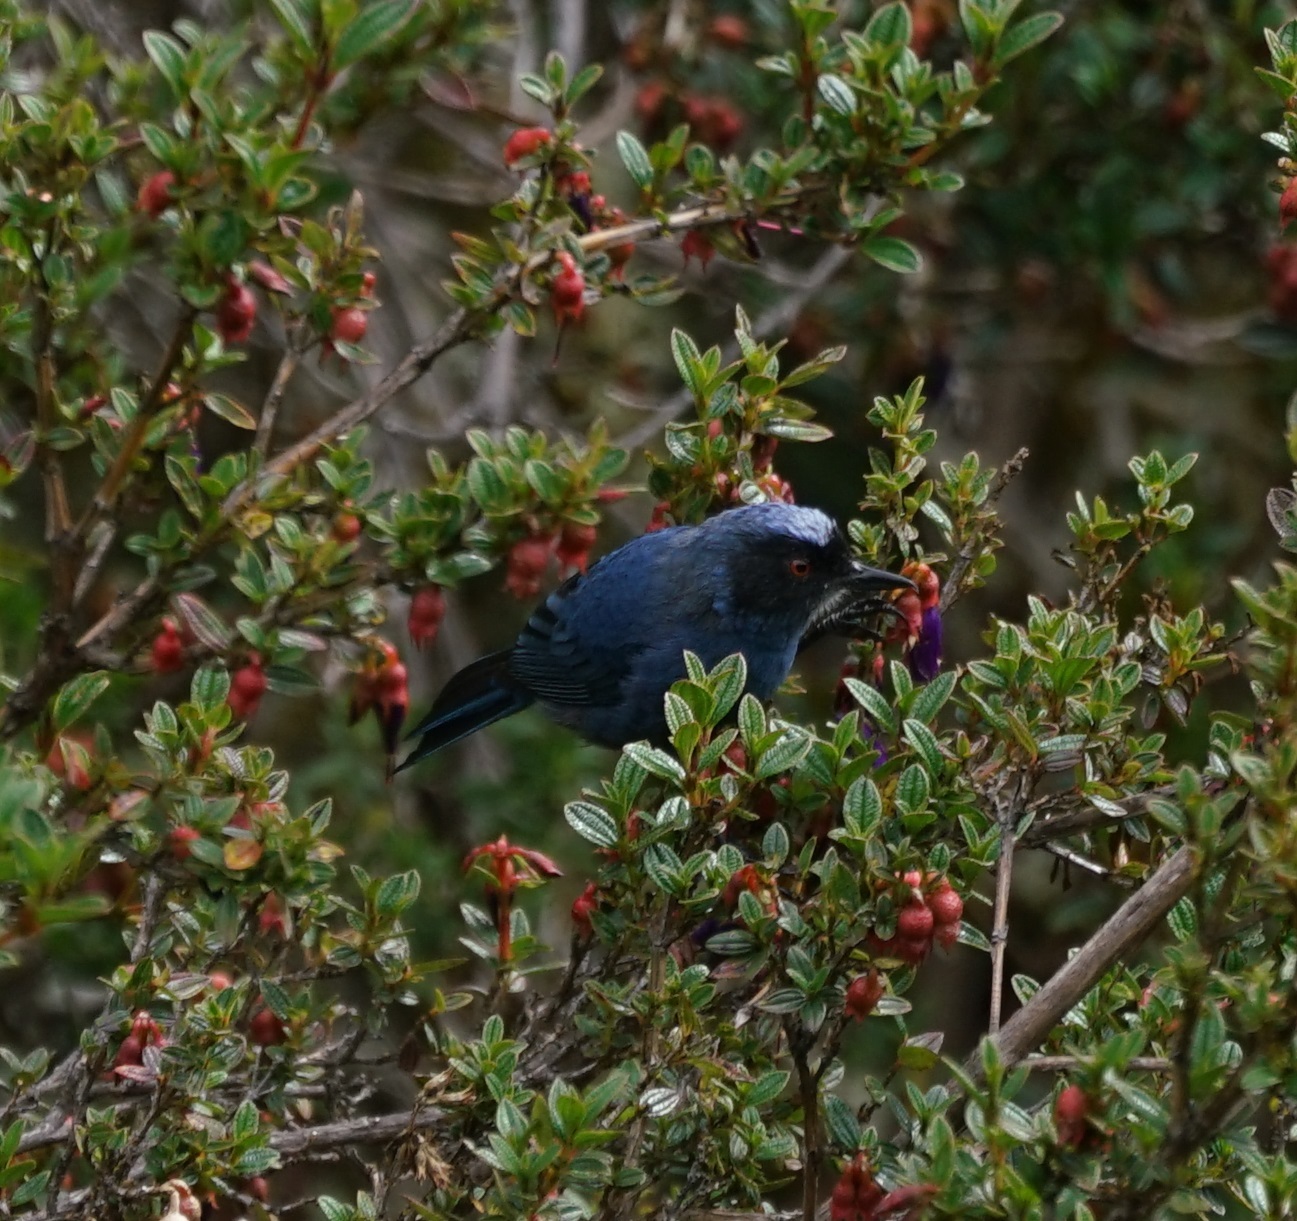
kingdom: Animalia
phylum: Chordata
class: Aves
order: Passeriformes
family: Thraupidae
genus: Diglossa
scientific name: Diglossa cyanea
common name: Masked flowerpiercer
